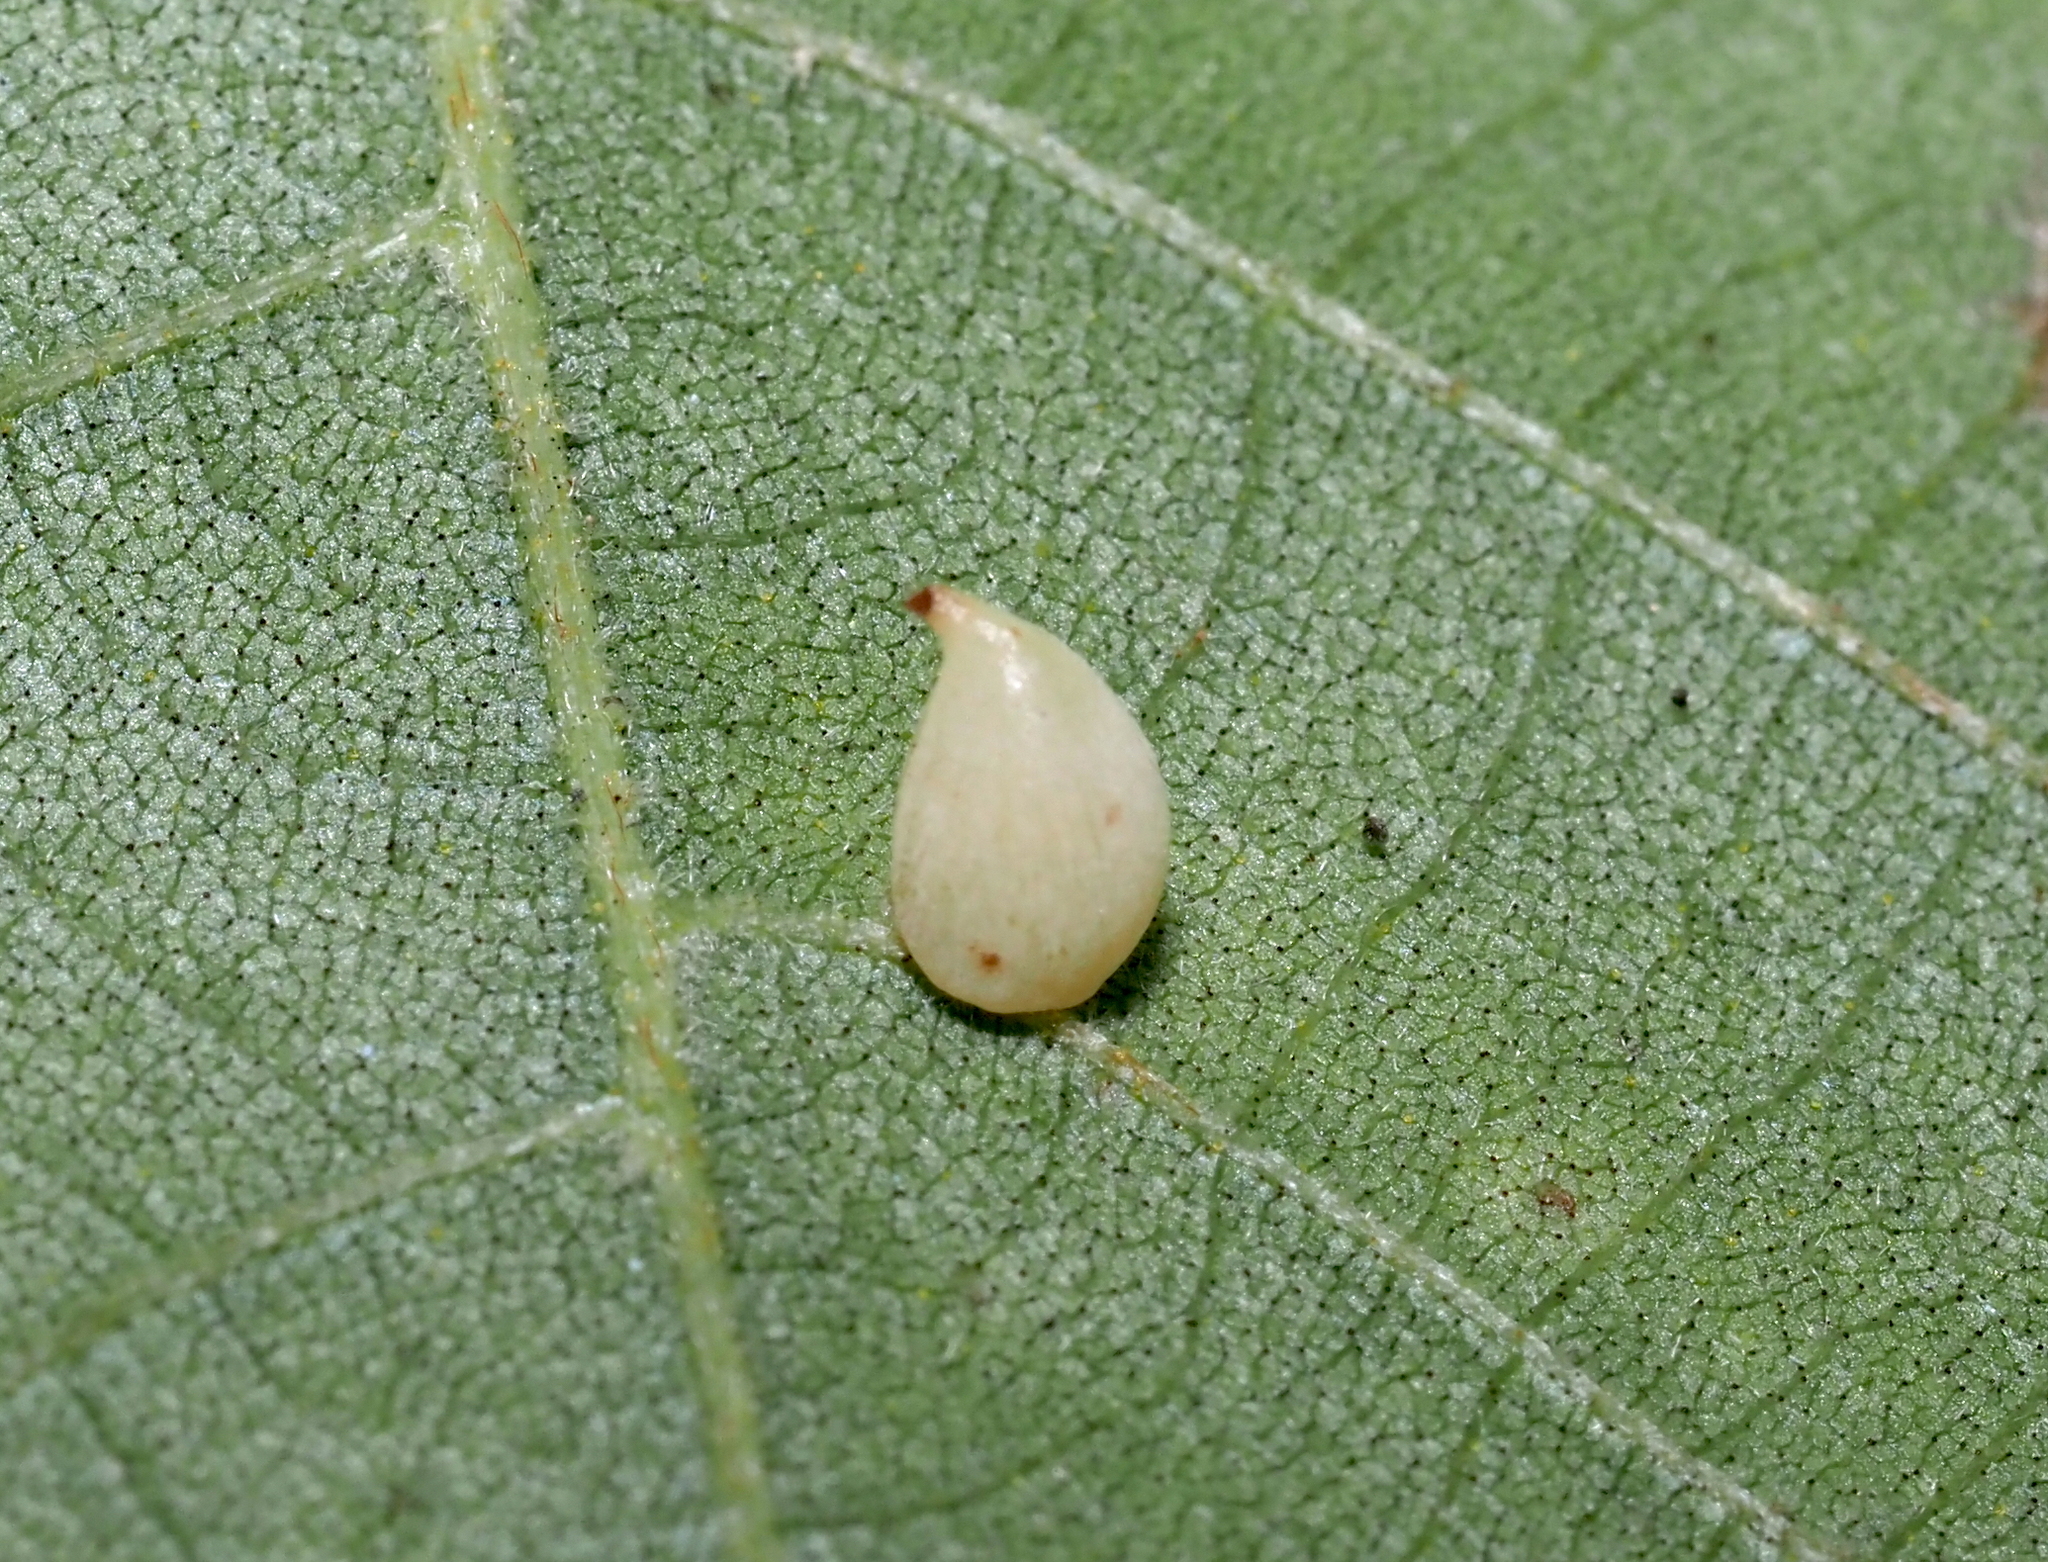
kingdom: Animalia
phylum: Arthropoda
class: Insecta
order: Diptera
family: Cecidomyiidae
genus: Caryomyia
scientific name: Caryomyia caryaecola
